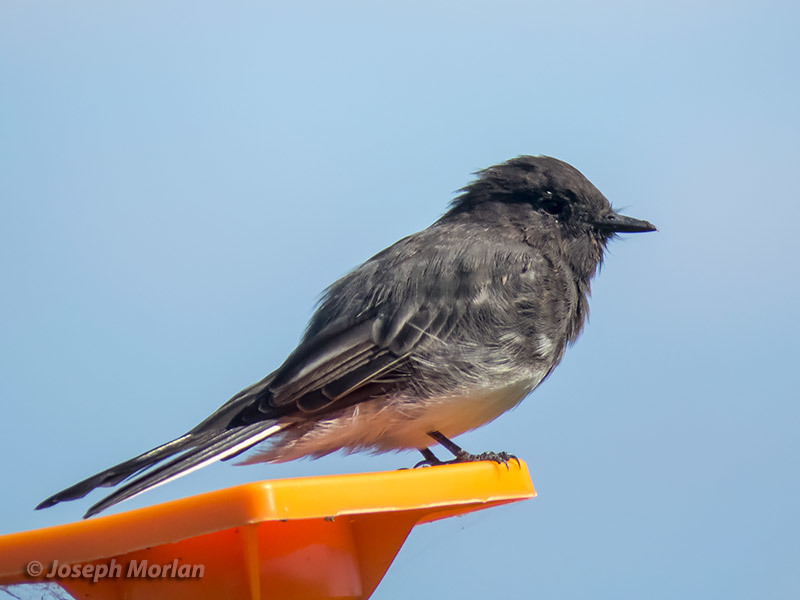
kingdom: Animalia
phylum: Chordata
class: Aves
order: Passeriformes
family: Tyrannidae
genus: Sayornis
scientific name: Sayornis nigricans
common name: Black phoebe
